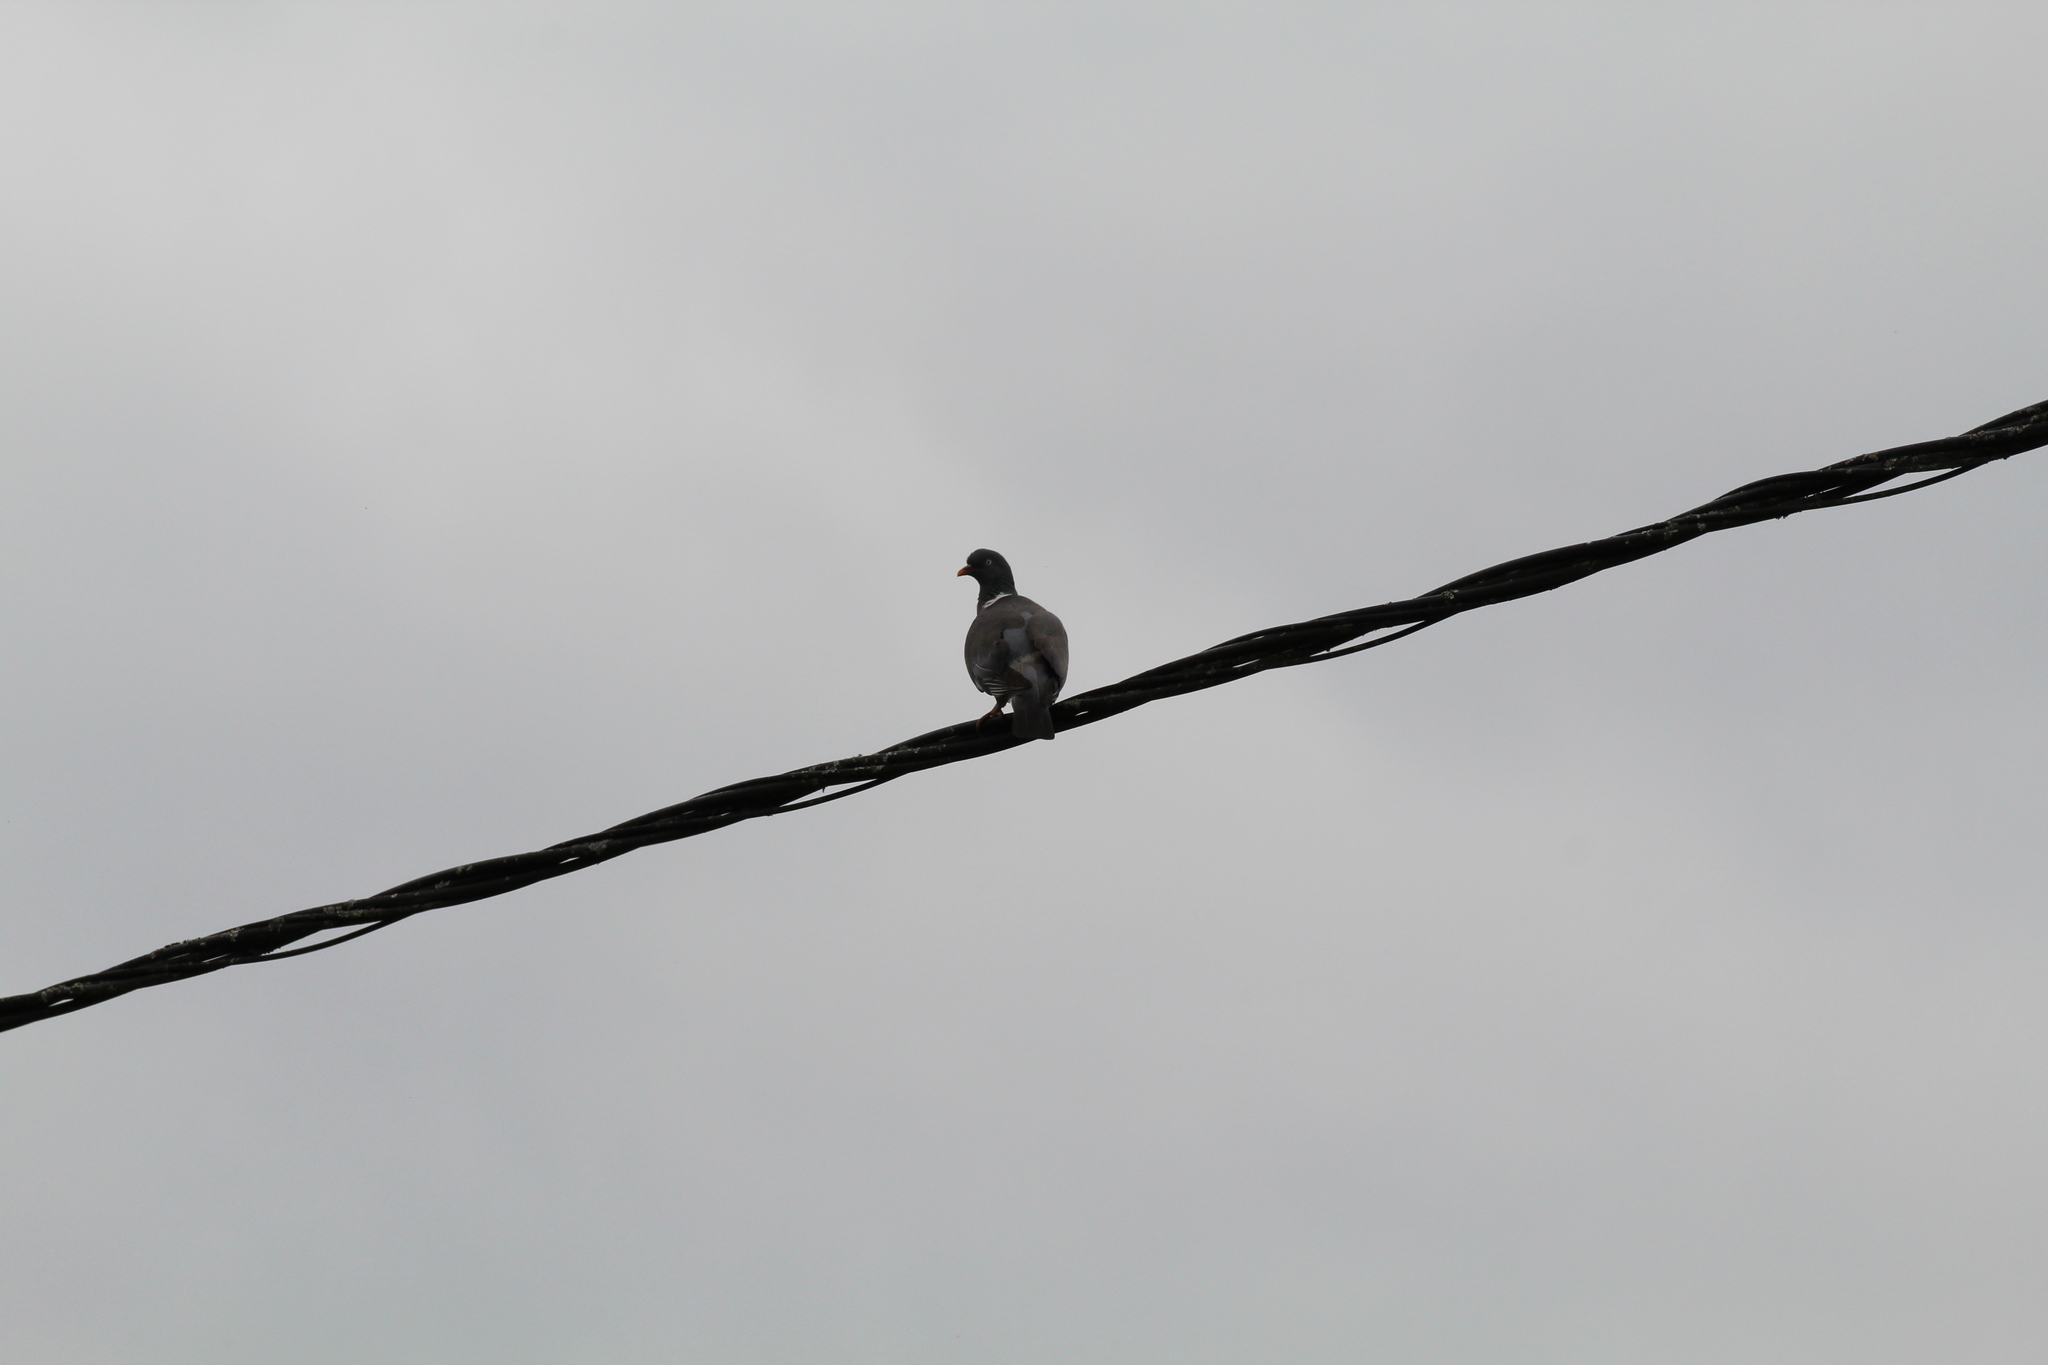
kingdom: Animalia
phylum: Chordata
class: Aves
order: Columbiformes
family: Columbidae
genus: Columba
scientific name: Columba palumbus
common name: Common wood pigeon
